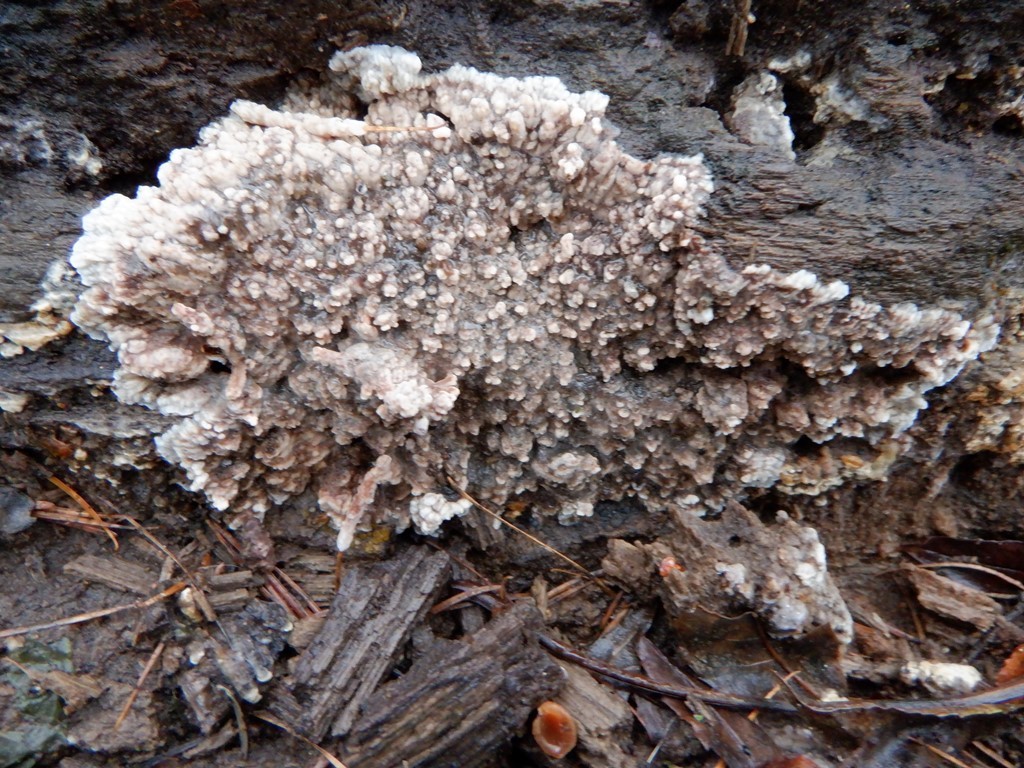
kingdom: Fungi
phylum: Basidiomycota
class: Agaricomycetes
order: Polyporales
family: Meruliaceae
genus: Phlebia
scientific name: Phlebia radiata
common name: Wrinkled crust
